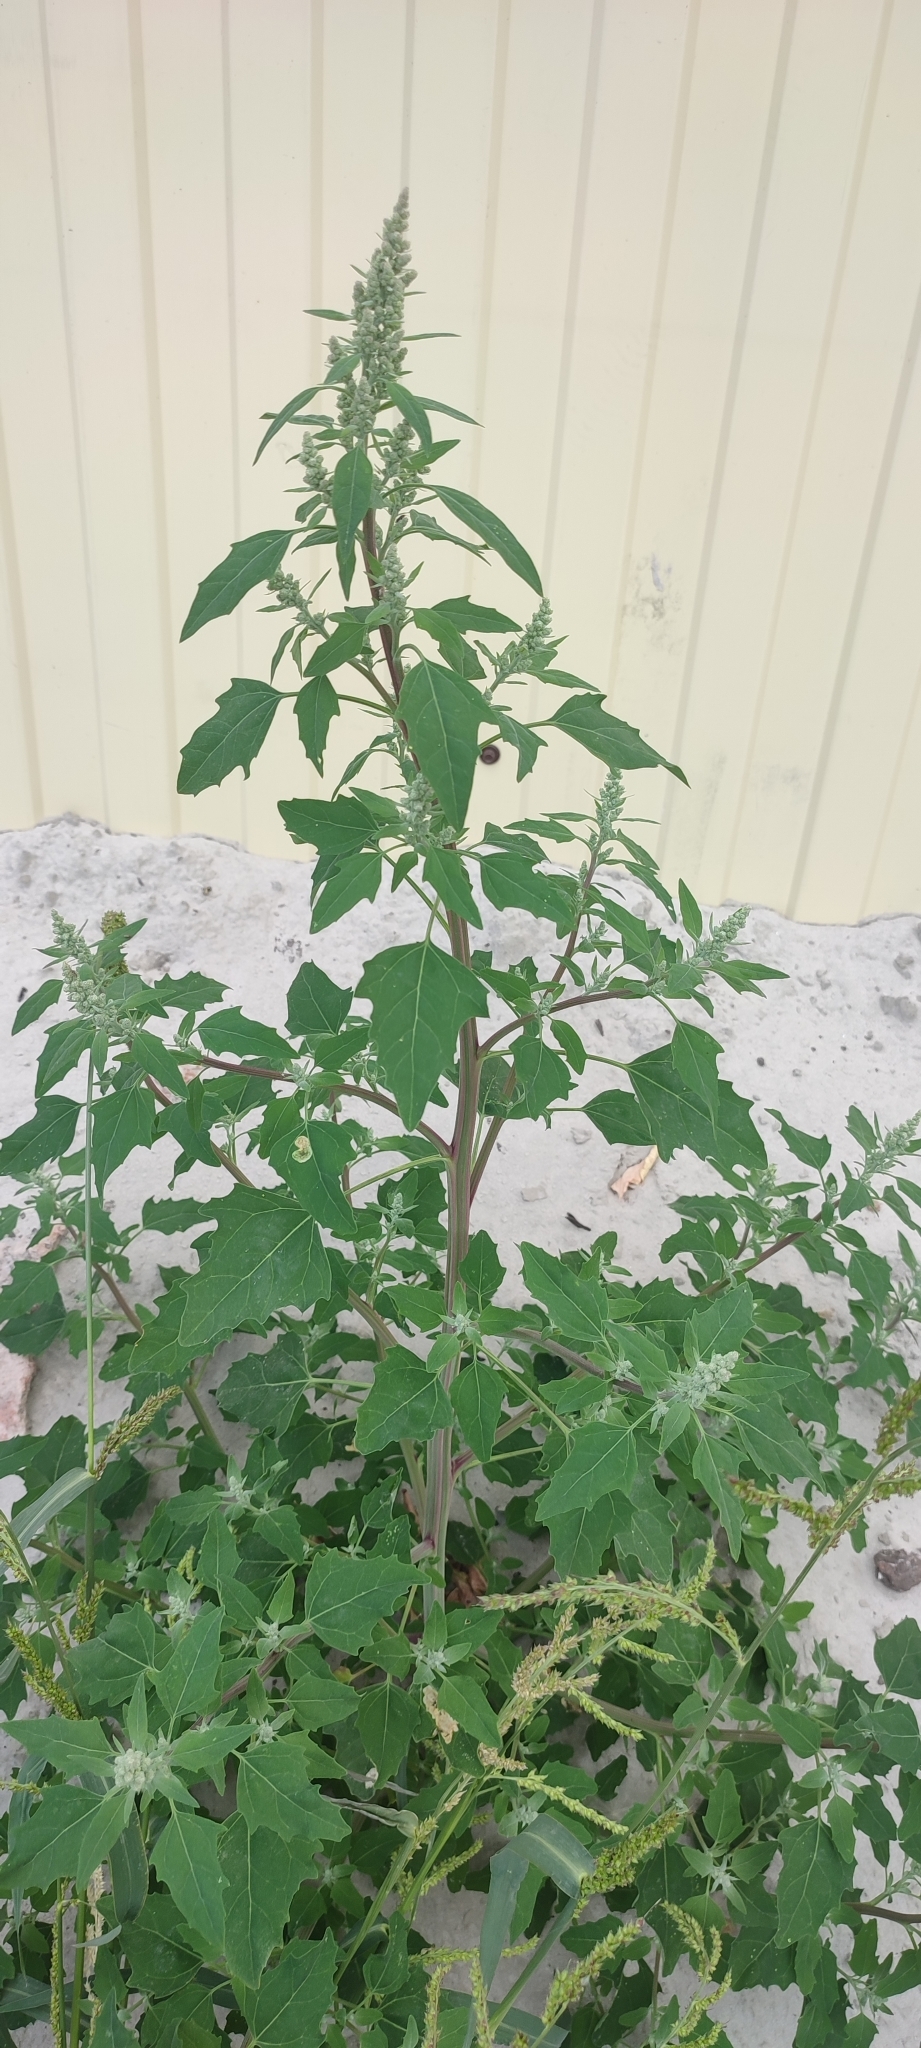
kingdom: Plantae
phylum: Tracheophyta
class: Magnoliopsida
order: Caryophyllales
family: Amaranthaceae
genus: Chenopodium
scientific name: Chenopodium album
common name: Fat-hen
